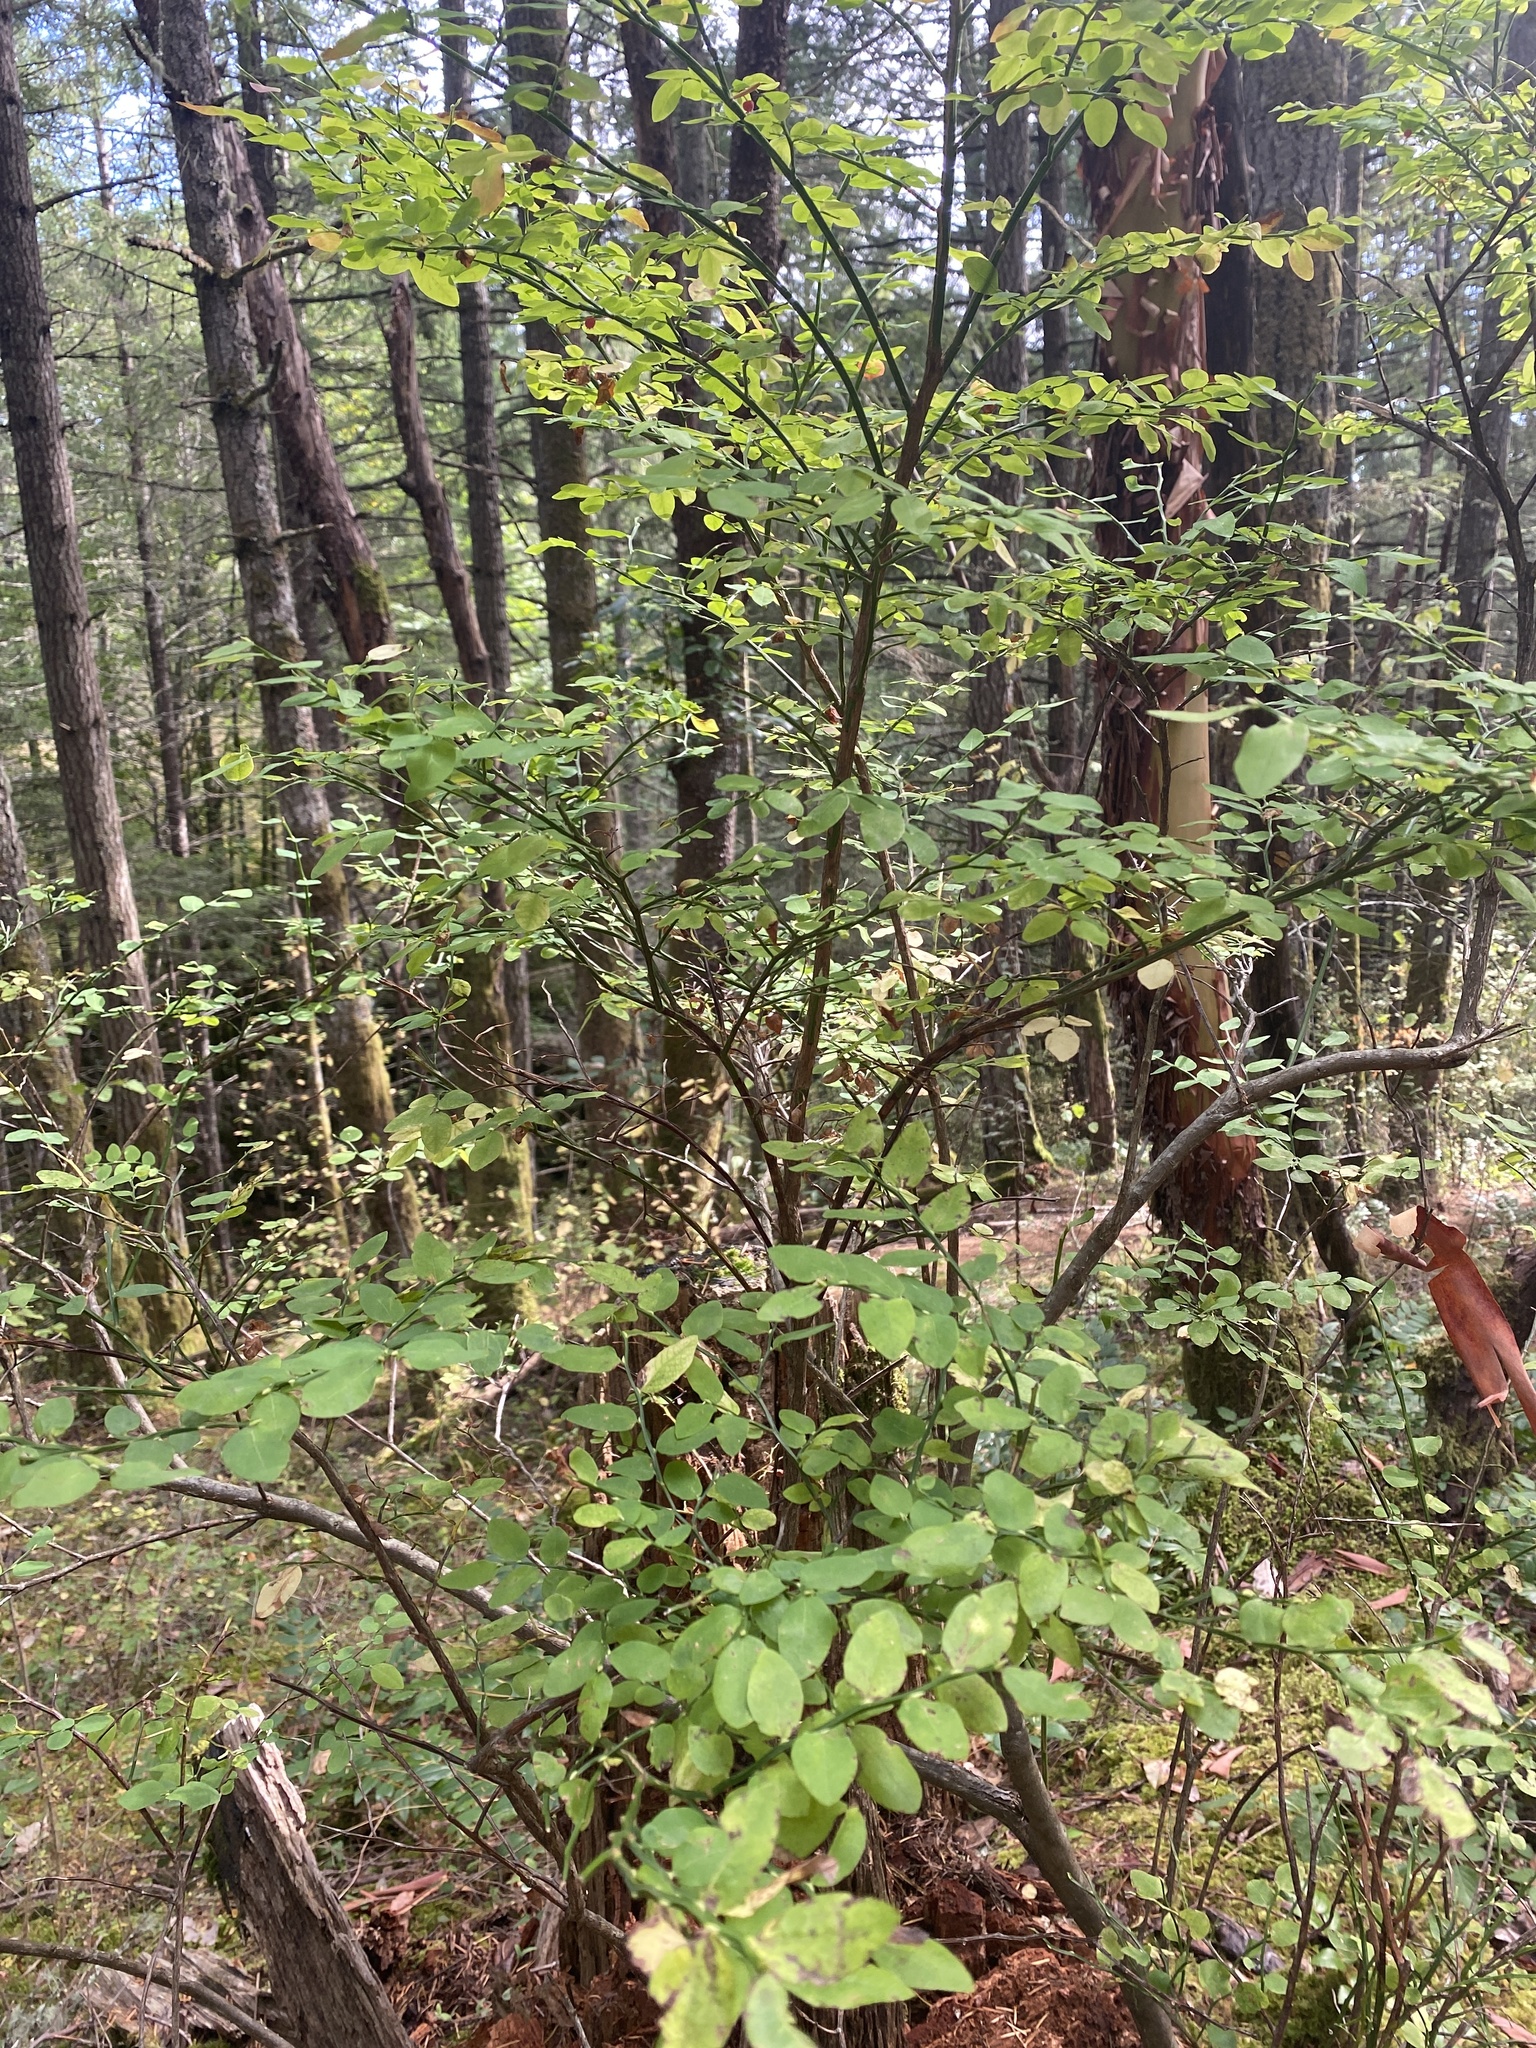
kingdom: Plantae
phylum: Tracheophyta
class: Magnoliopsida
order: Ericales
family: Ericaceae
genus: Vaccinium
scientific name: Vaccinium parvifolium
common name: Red-huckleberry
